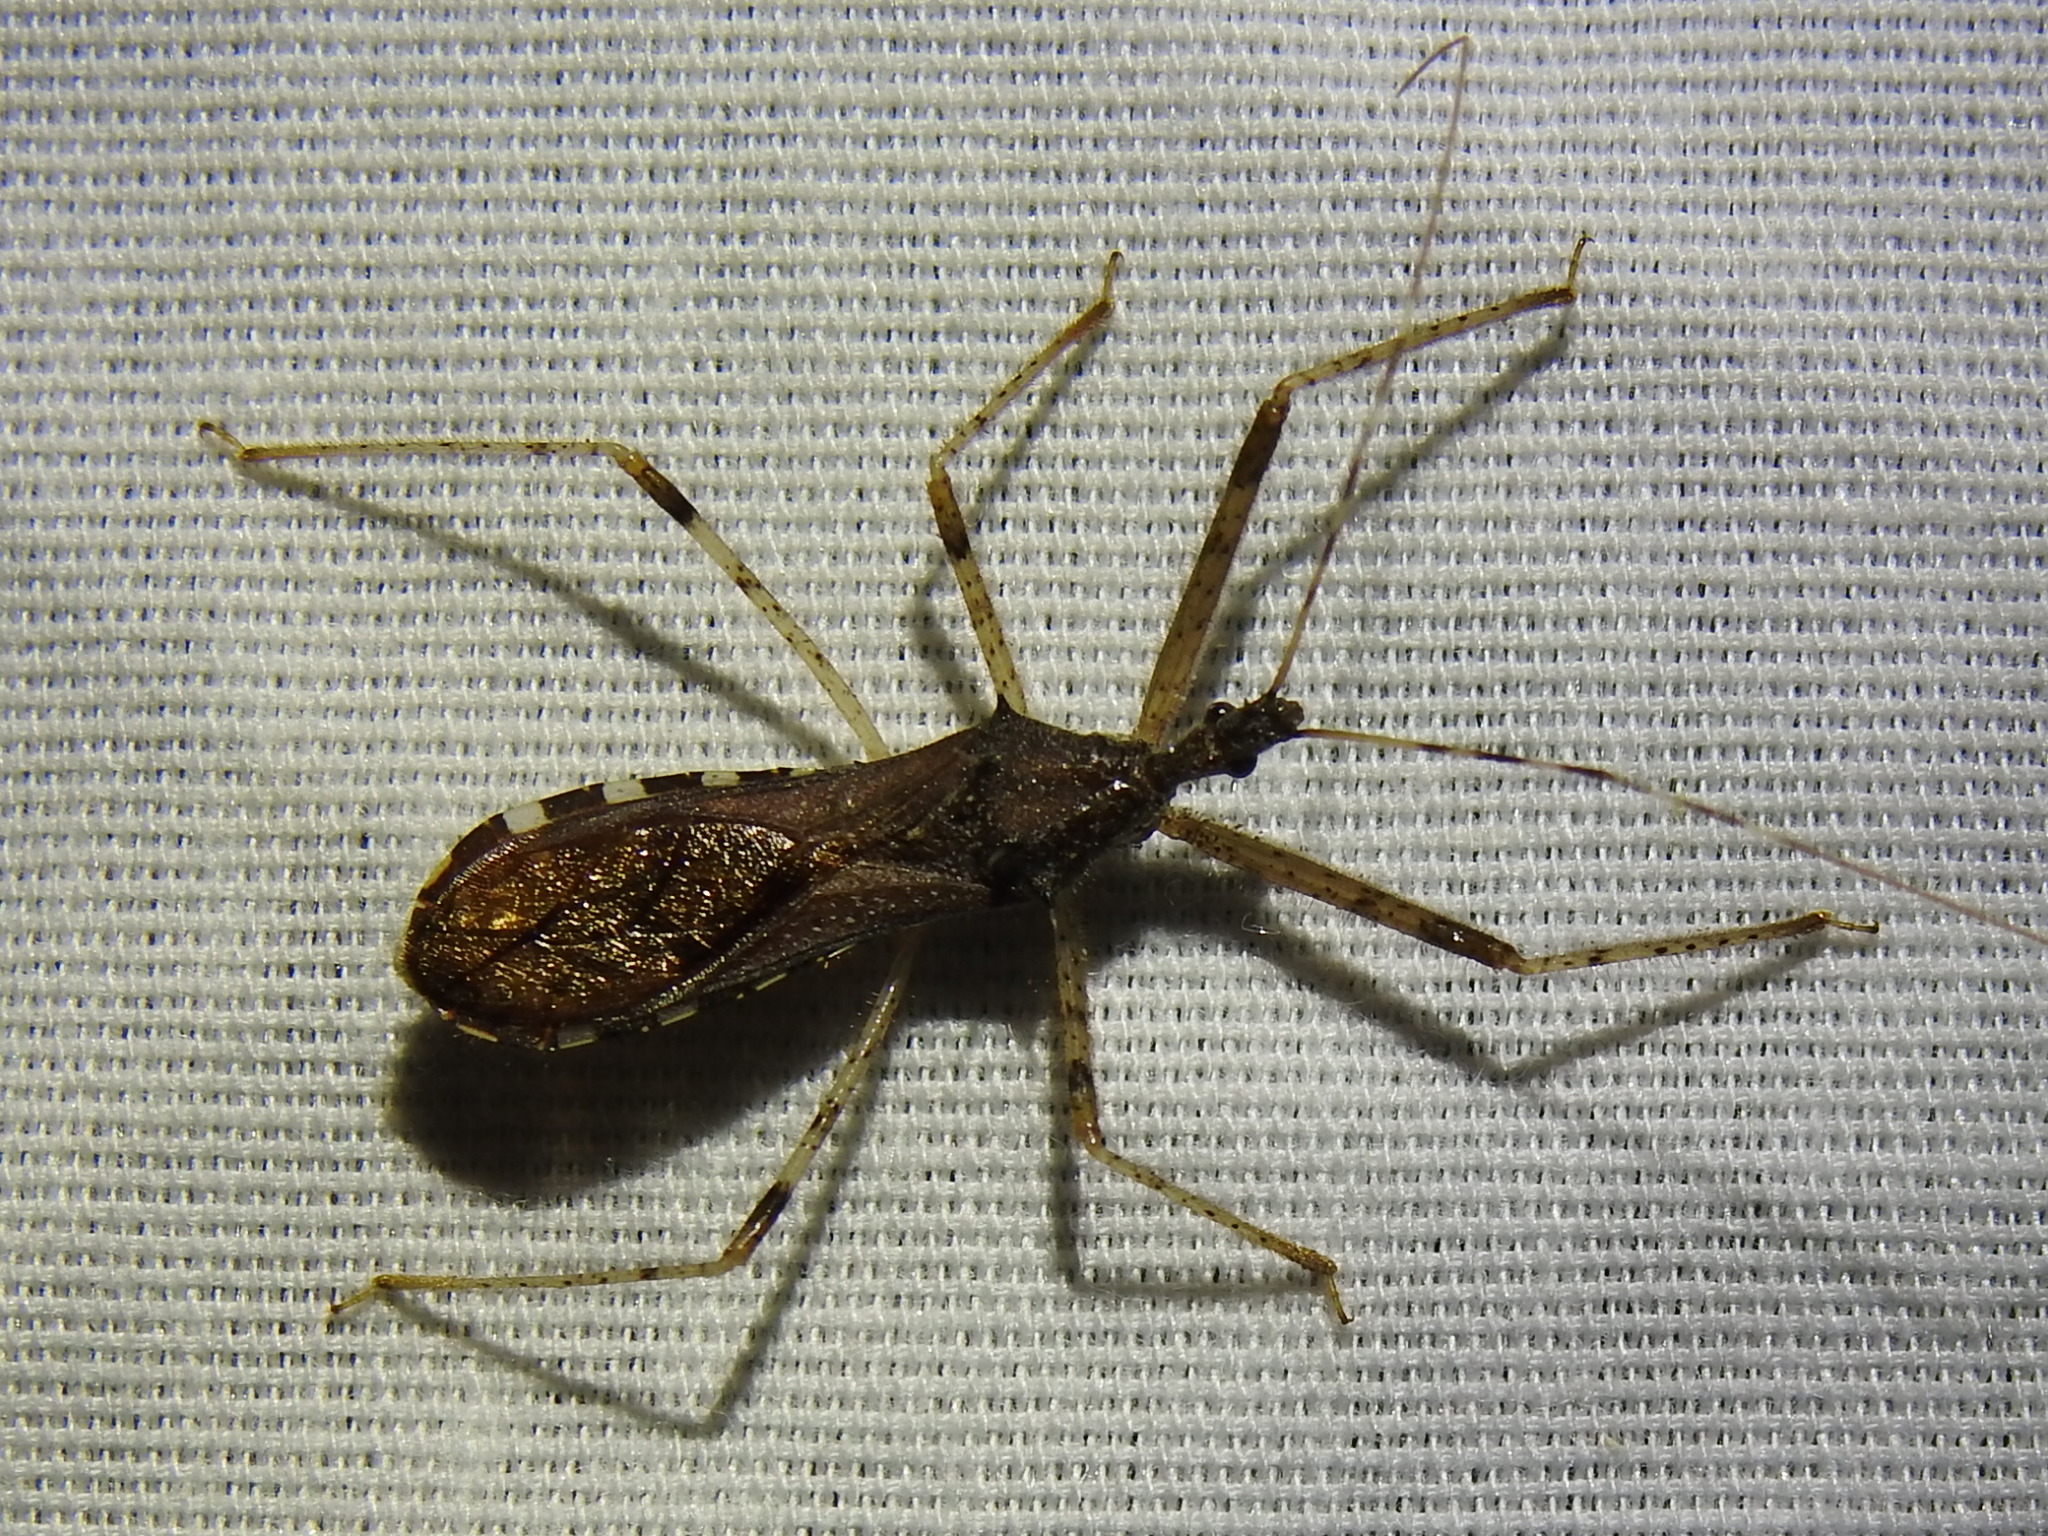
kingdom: Animalia
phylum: Arthropoda
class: Insecta
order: Hemiptera
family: Reduviidae
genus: Rocconota
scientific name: Rocconota annulicornis
